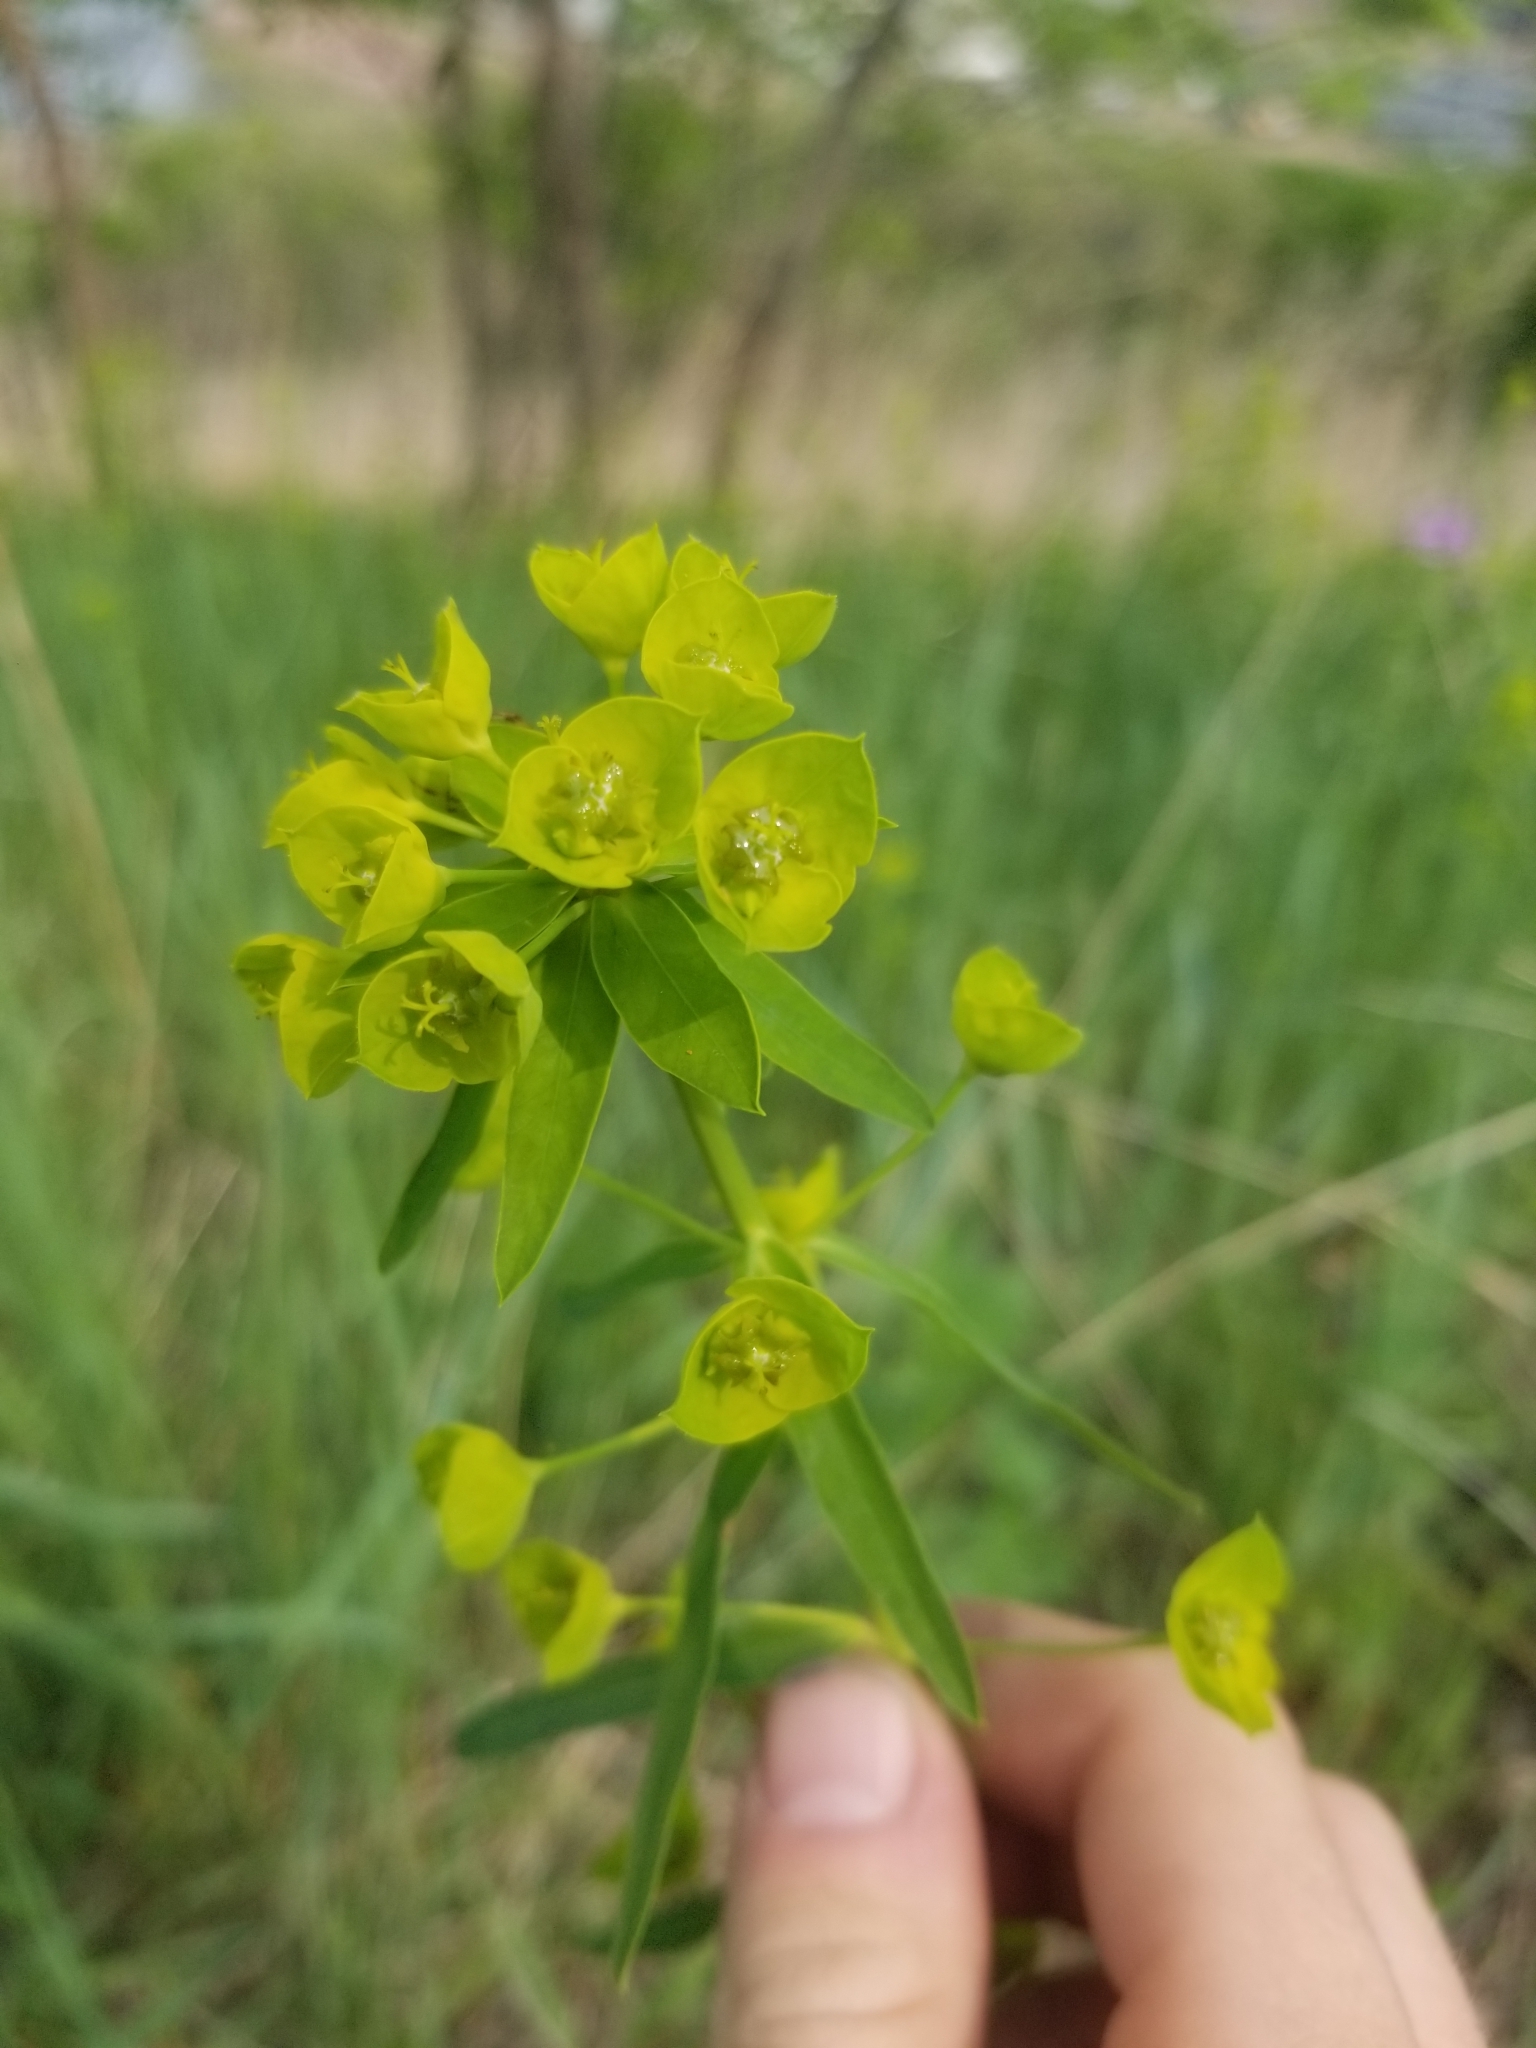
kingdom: Plantae
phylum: Tracheophyta
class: Magnoliopsida
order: Malpighiales
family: Euphorbiaceae
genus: Euphorbia
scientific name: Euphorbia virgata
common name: Leafy spurge
